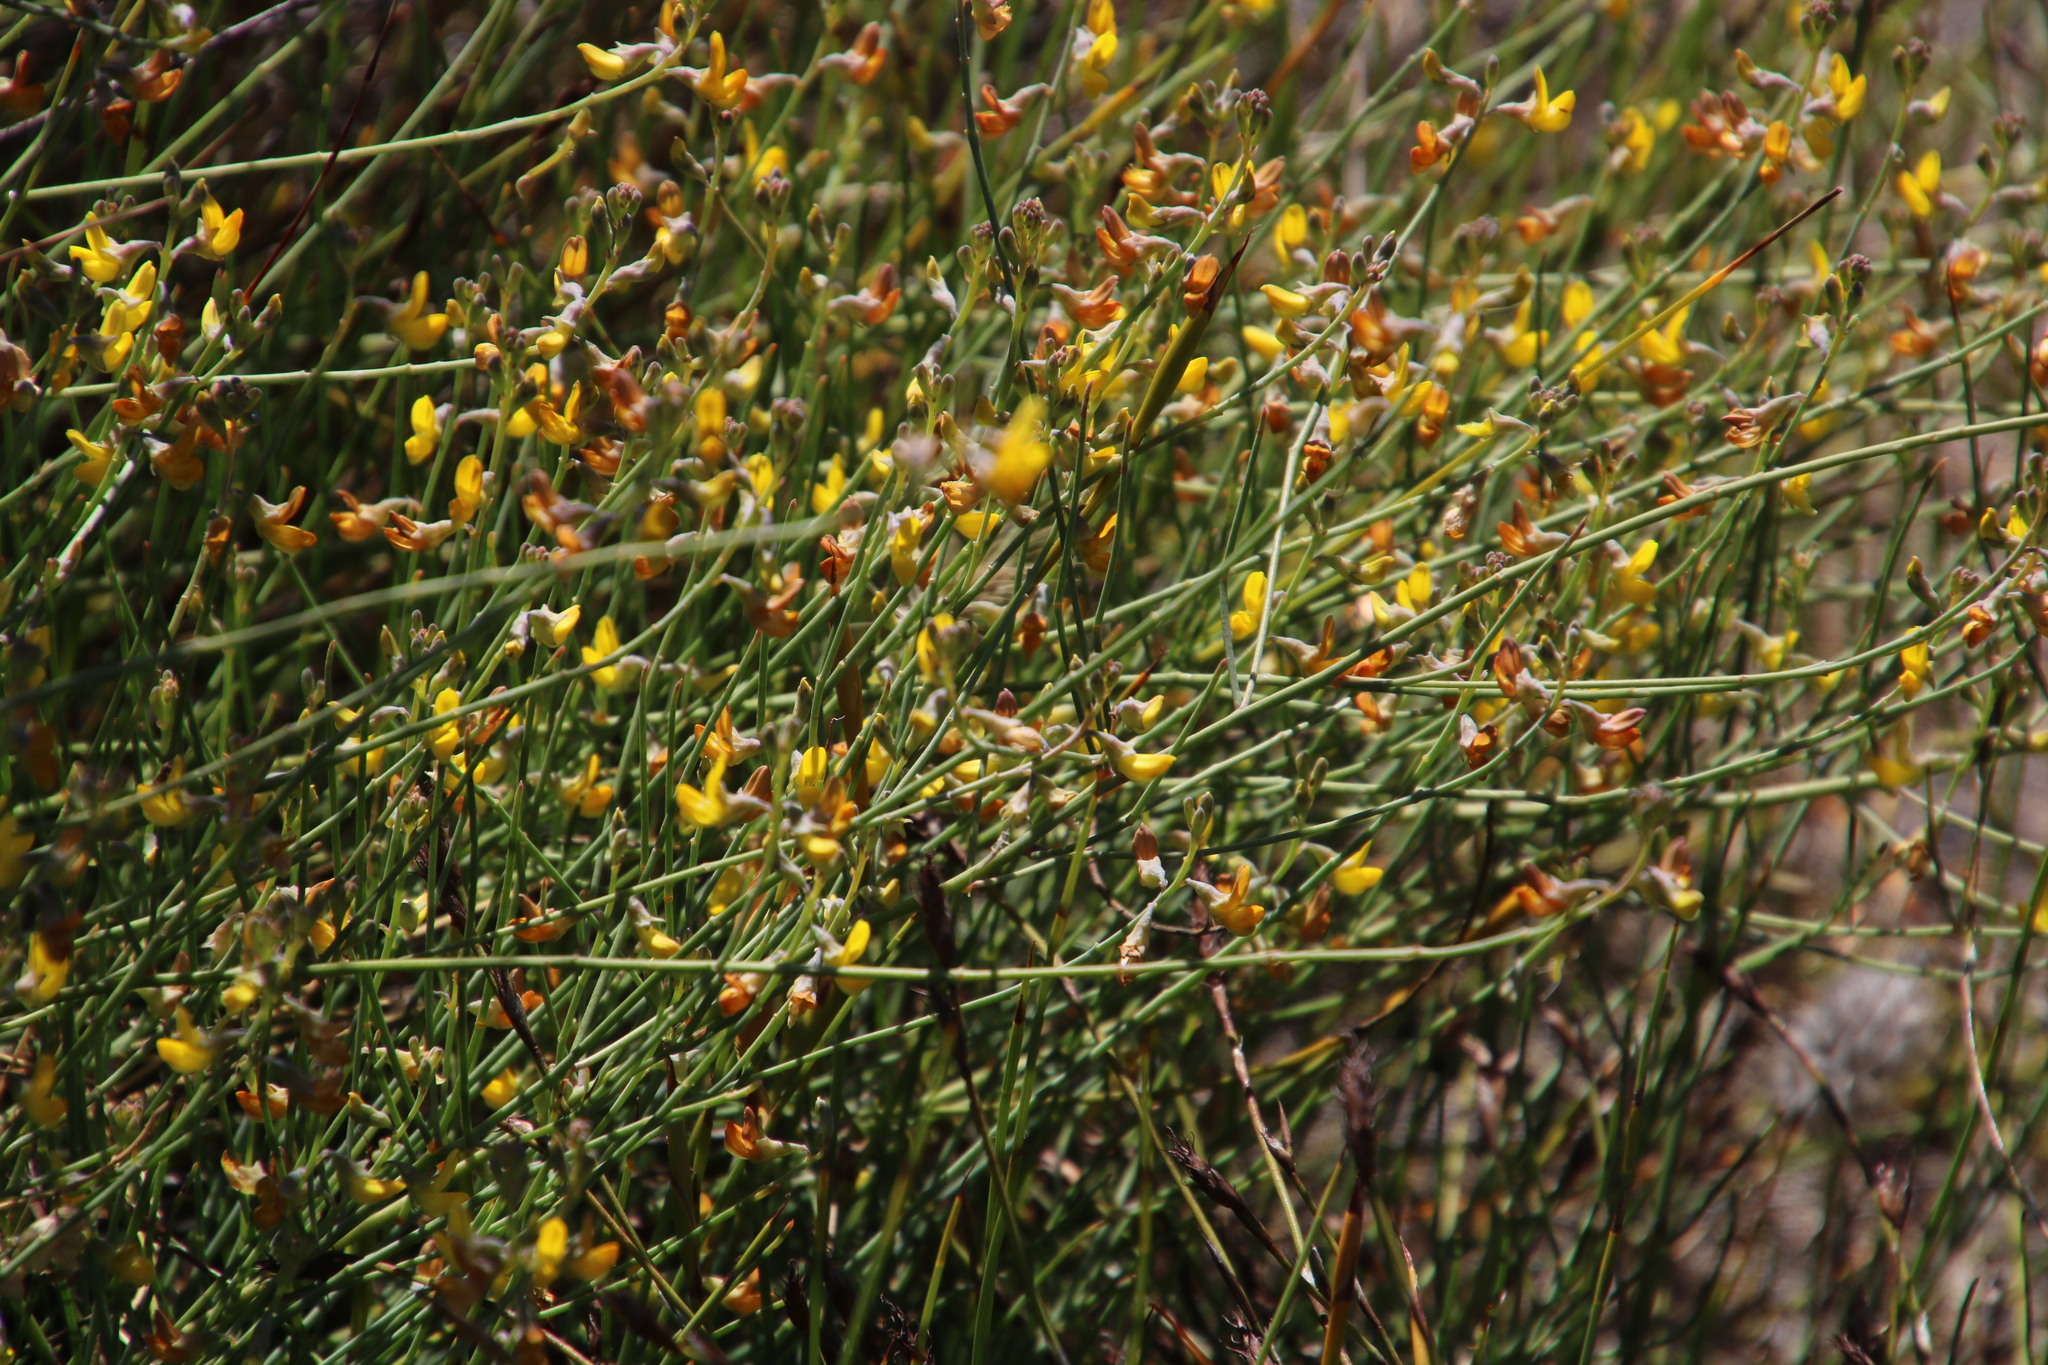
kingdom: Plantae
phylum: Tracheophyta
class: Magnoliopsida
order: Fabales
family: Fabaceae
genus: Lebeckia
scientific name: Lebeckia contaminata
